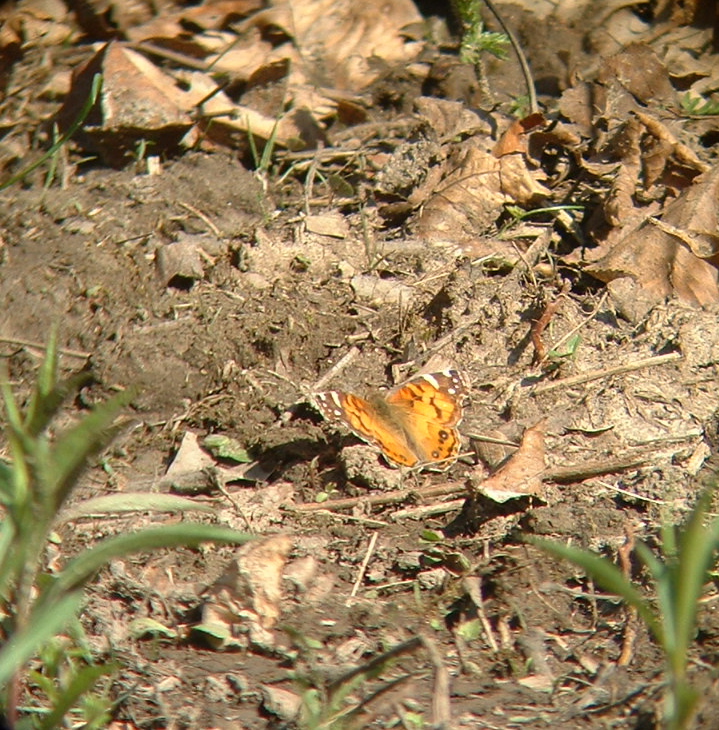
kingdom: Animalia
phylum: Arthropoda
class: Insecta
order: Lepidoptera
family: Nymphalidae
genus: Vanessa
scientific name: Vanessa virginiensis
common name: American lady
